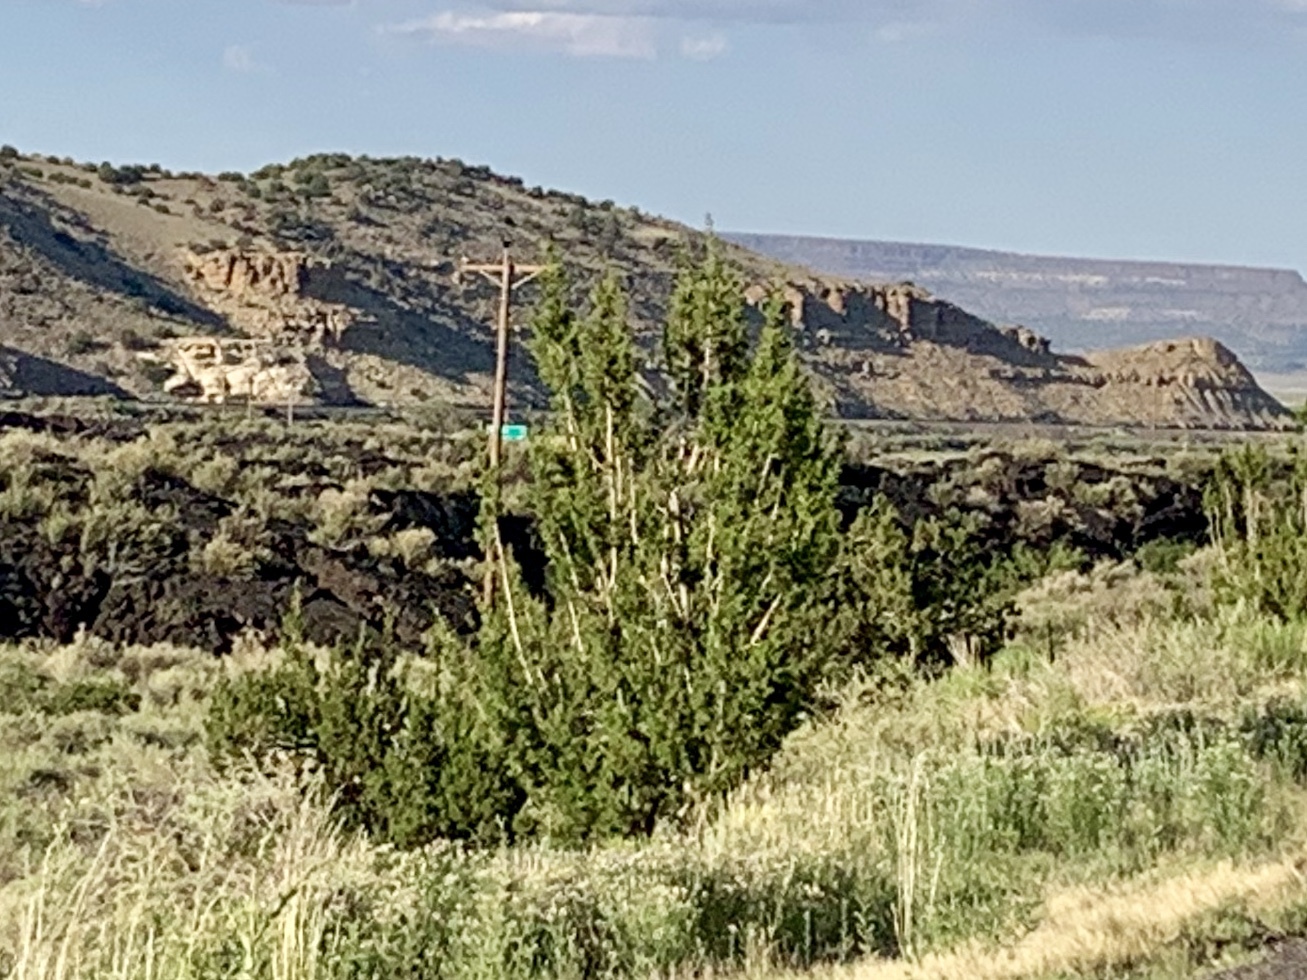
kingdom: Plantae
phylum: Tracheophyta
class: Pinopsida
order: Pinales
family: Cupressaceae
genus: Juniperus
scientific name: Juniperus monosperma
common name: One-seed juniper
